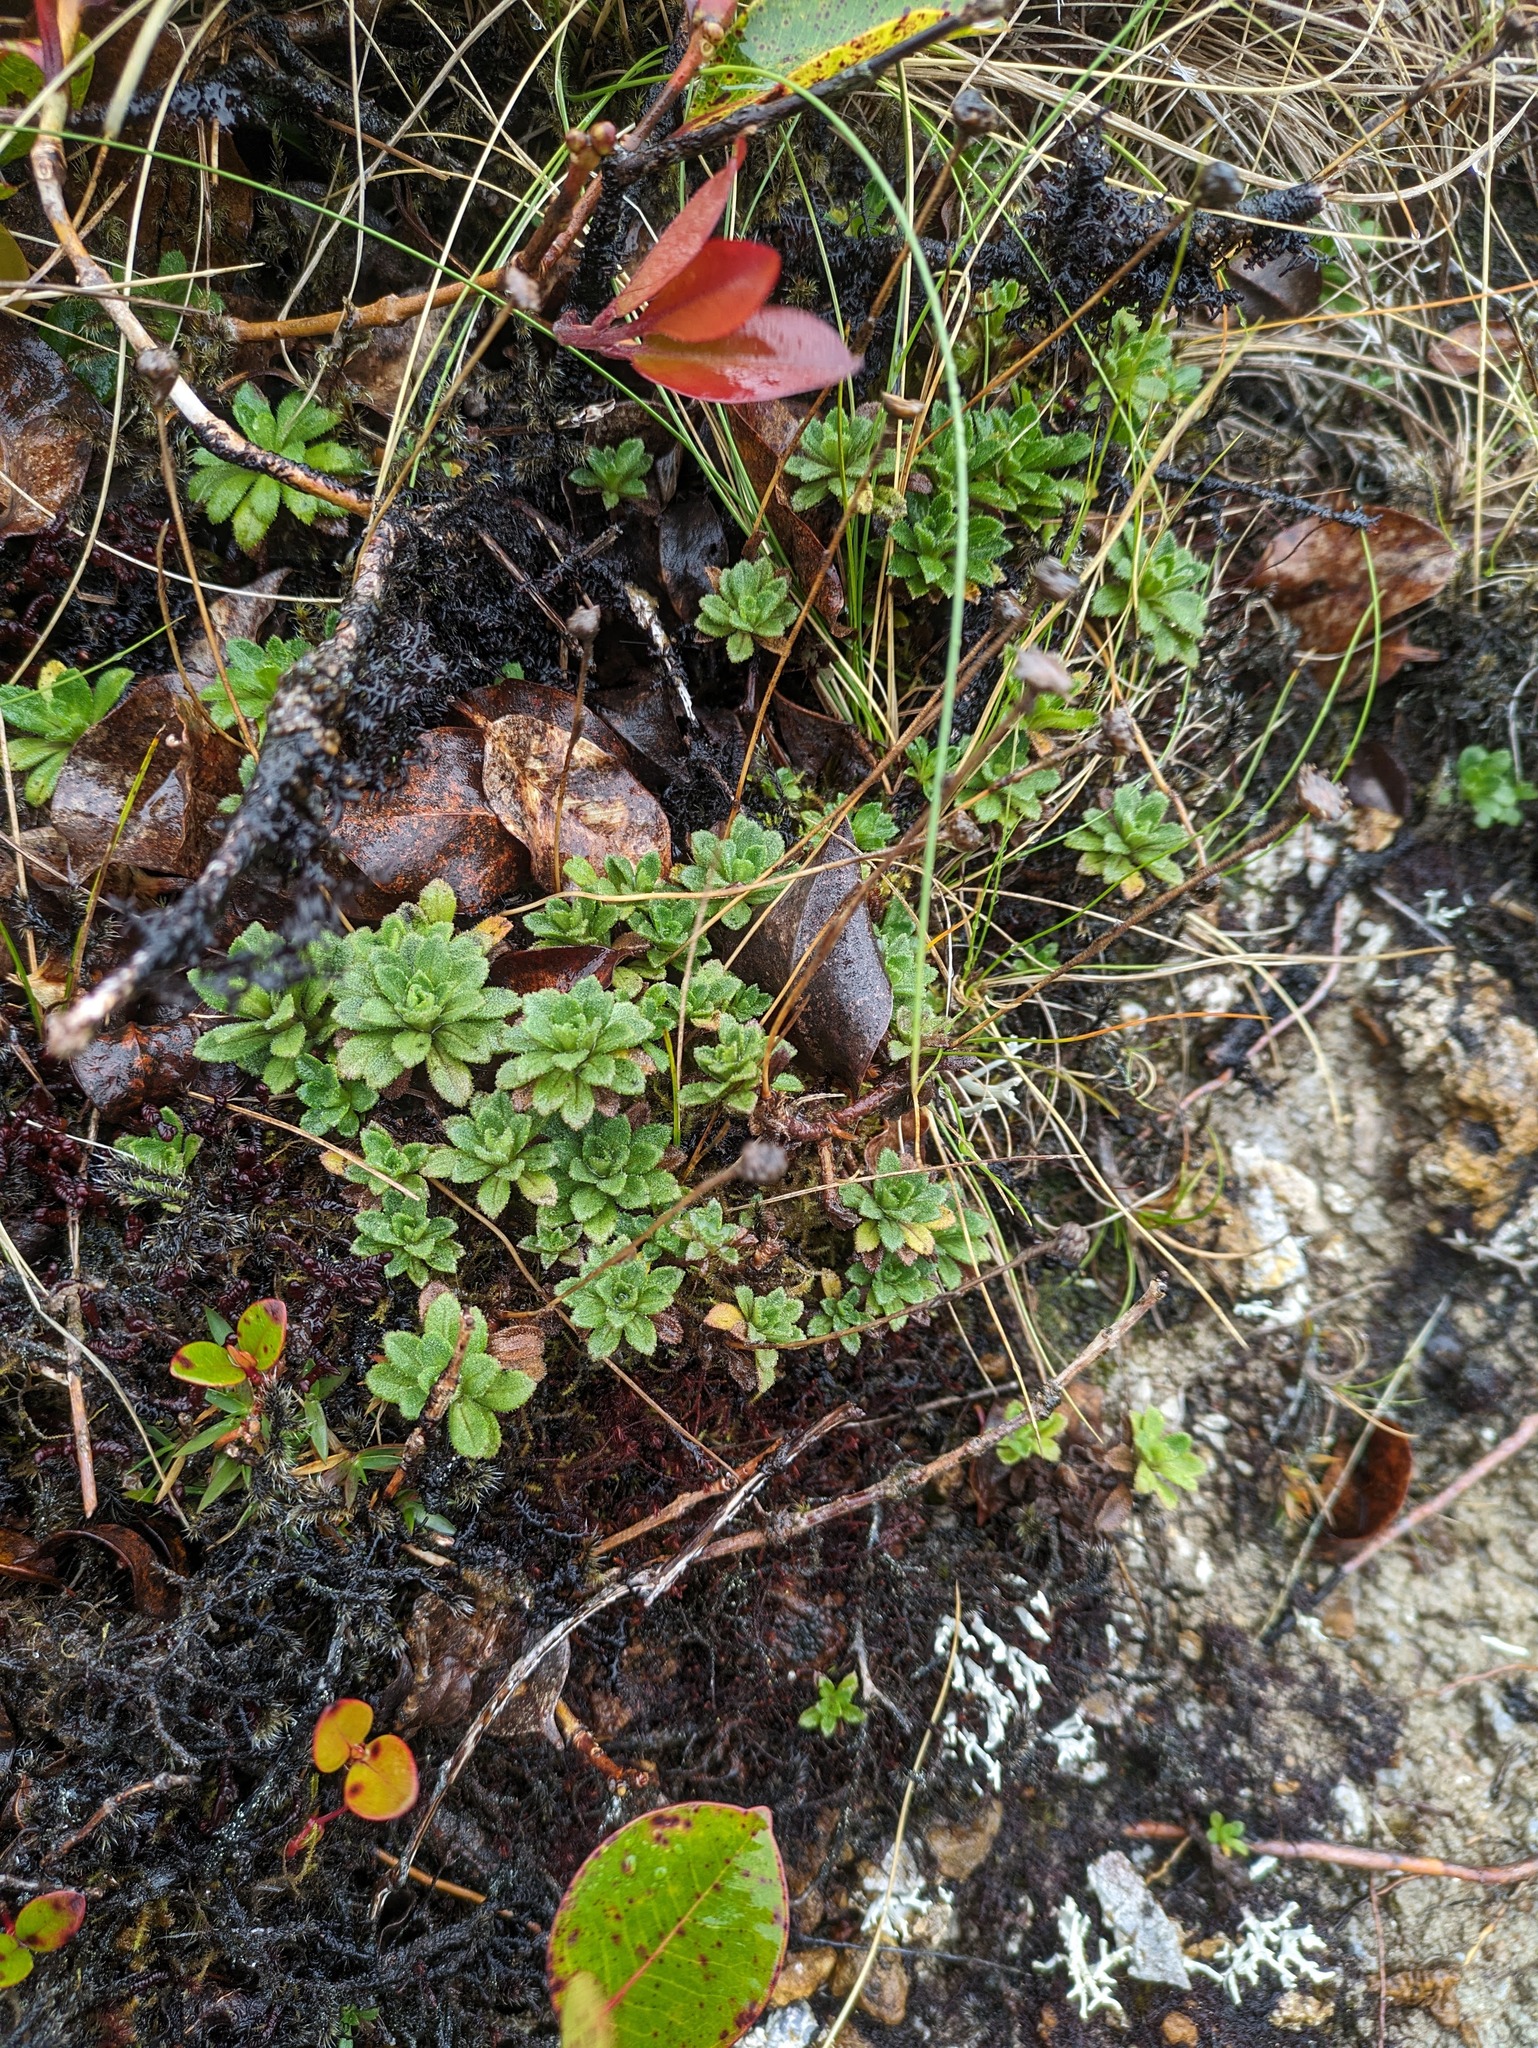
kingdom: Plantae
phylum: Tracheophyta
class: Magnoliopsida
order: Asterales
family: Asteraceae
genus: Helodeaster
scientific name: Helodeaster helenae
